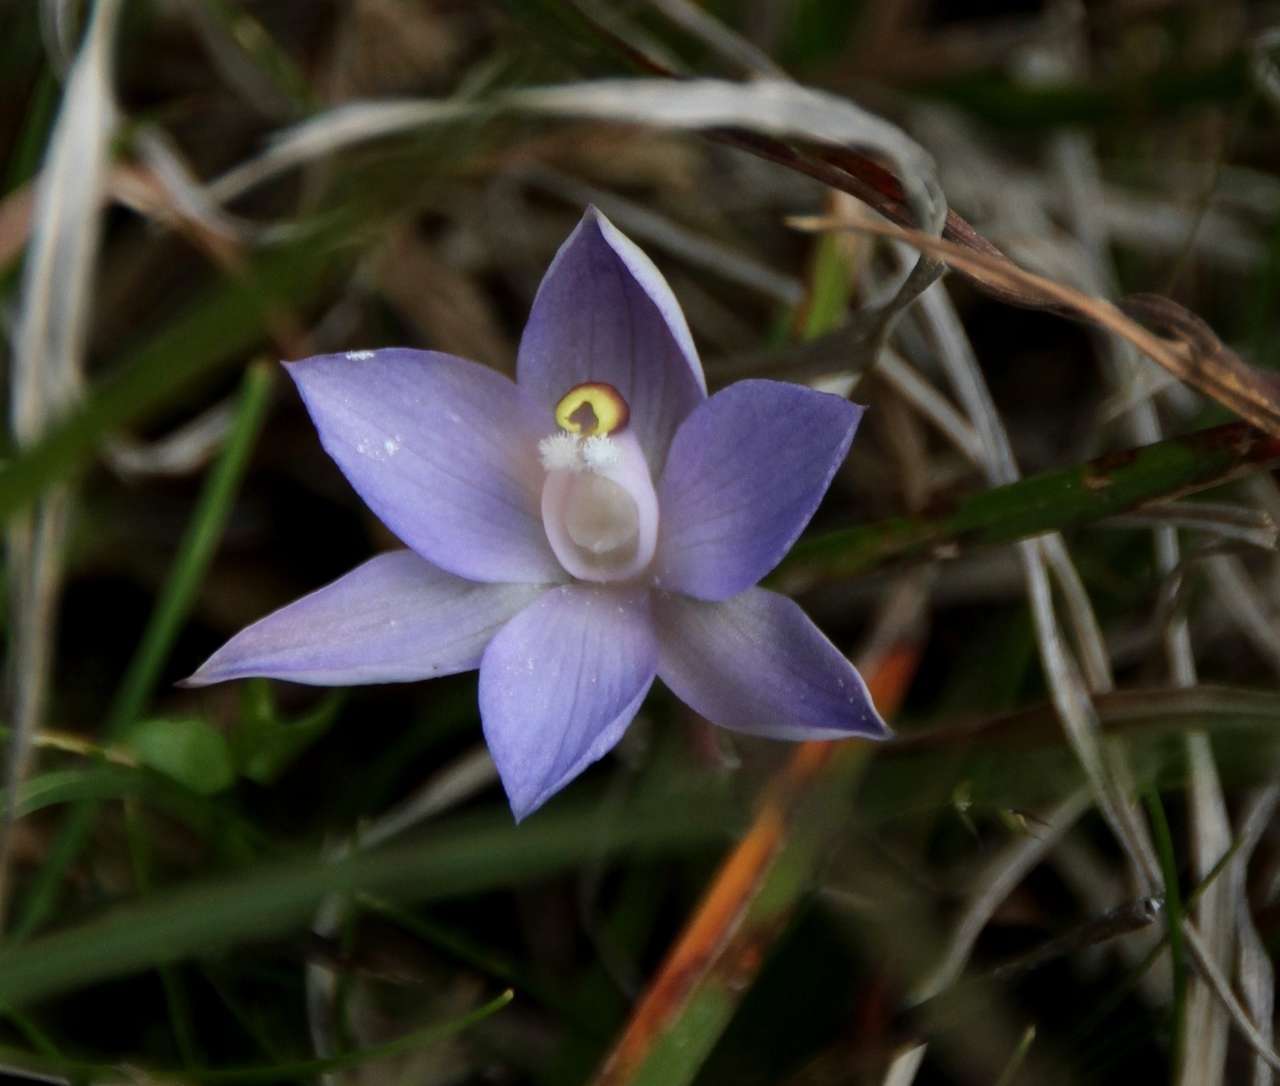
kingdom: Plantae
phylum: Tracheophyta
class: Liliopsida
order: Asparagales
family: Orchidaceae
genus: Thelymitra
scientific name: Thelymitra arenaria
